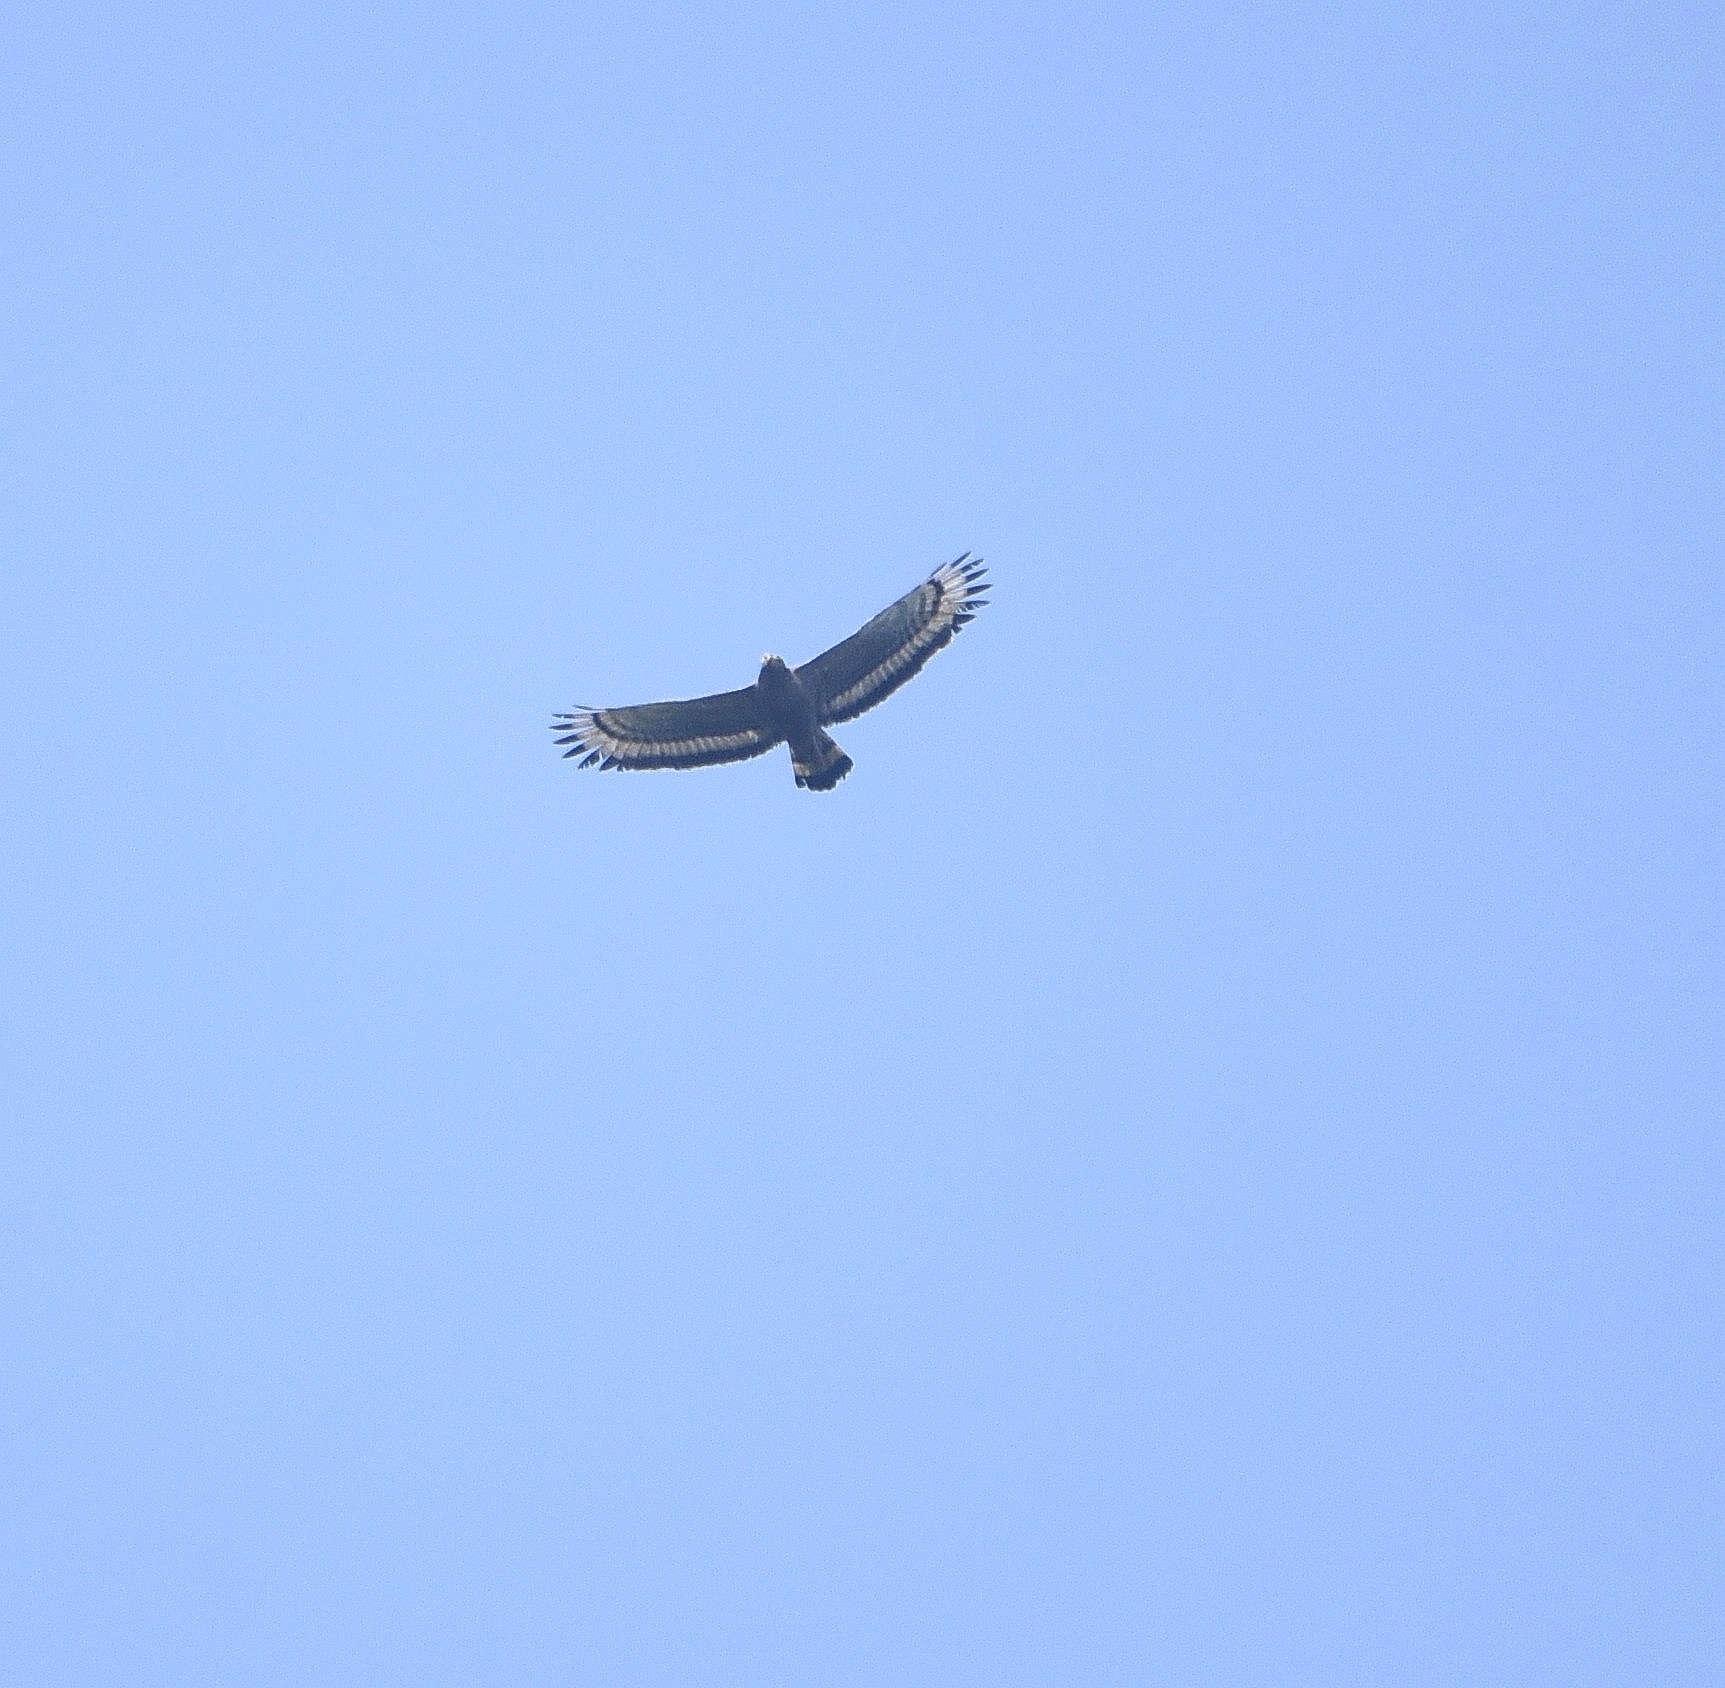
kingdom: Animalia
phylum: Chordata
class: Aves
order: Accipitriformes
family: Accipitridae
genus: Spilornis
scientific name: Spilornis cheela
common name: Crested serpent eagle
